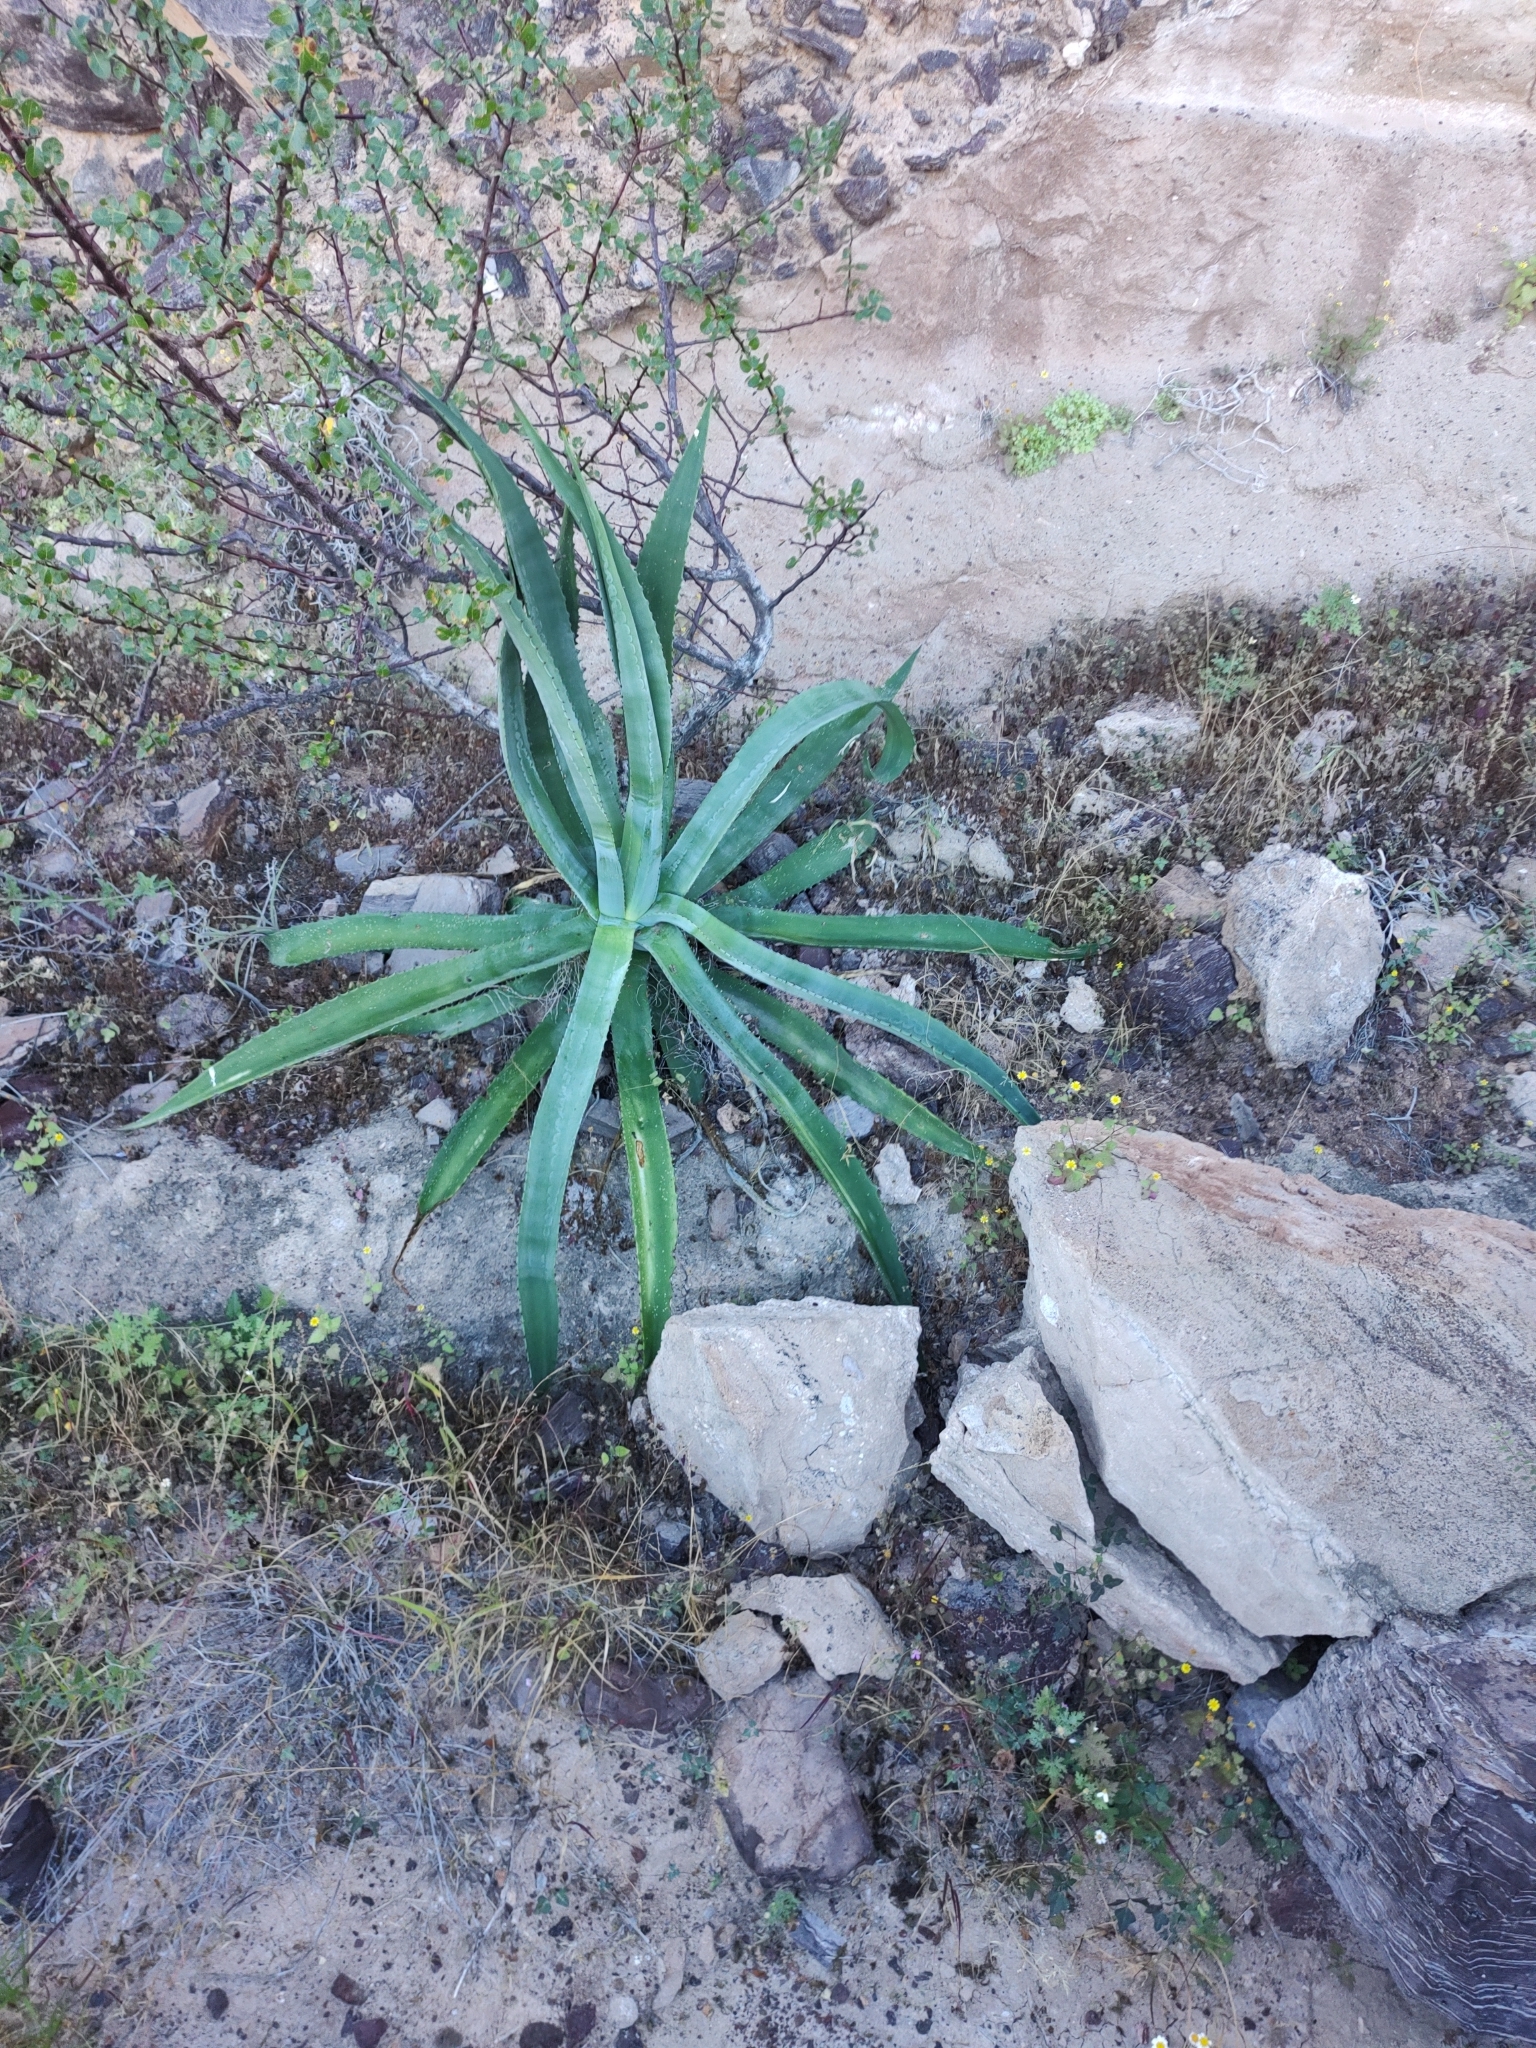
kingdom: Plantae
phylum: Tracheophyta
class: Liliopsida
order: Asparagales
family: Asparagaceae
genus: Agave
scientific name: Agave aurea
